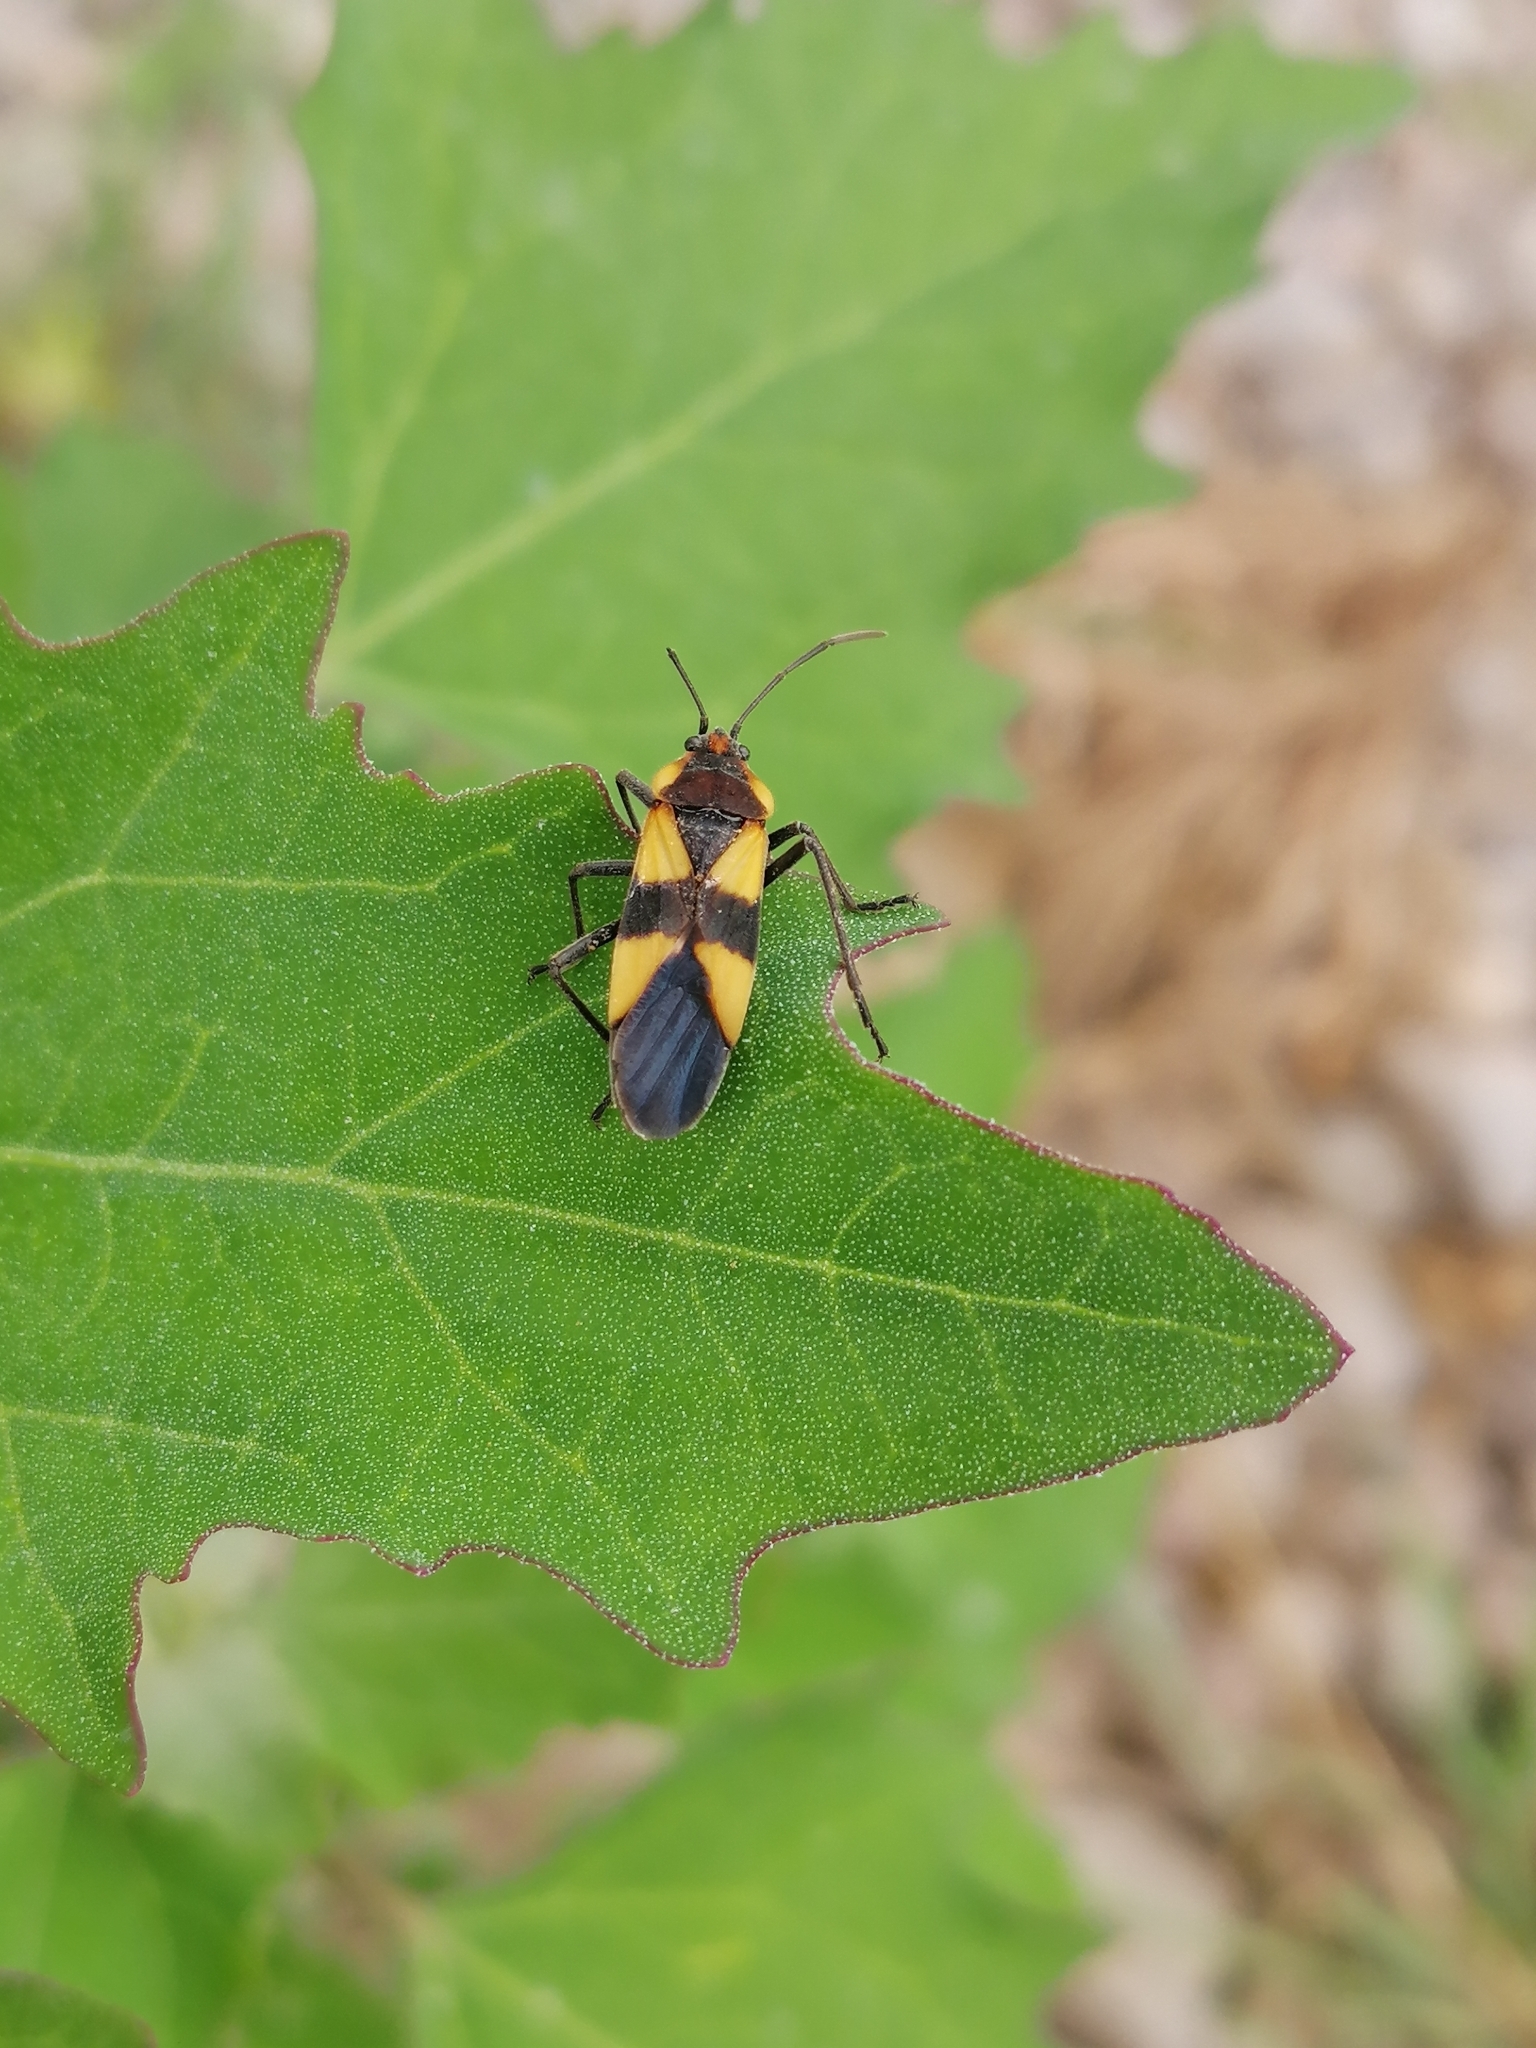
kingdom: Animalia
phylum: Arthropoda
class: Insecta
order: Hemiptera
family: Lygaeidae
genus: Oncopeltus
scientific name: Oncopeltus miles
